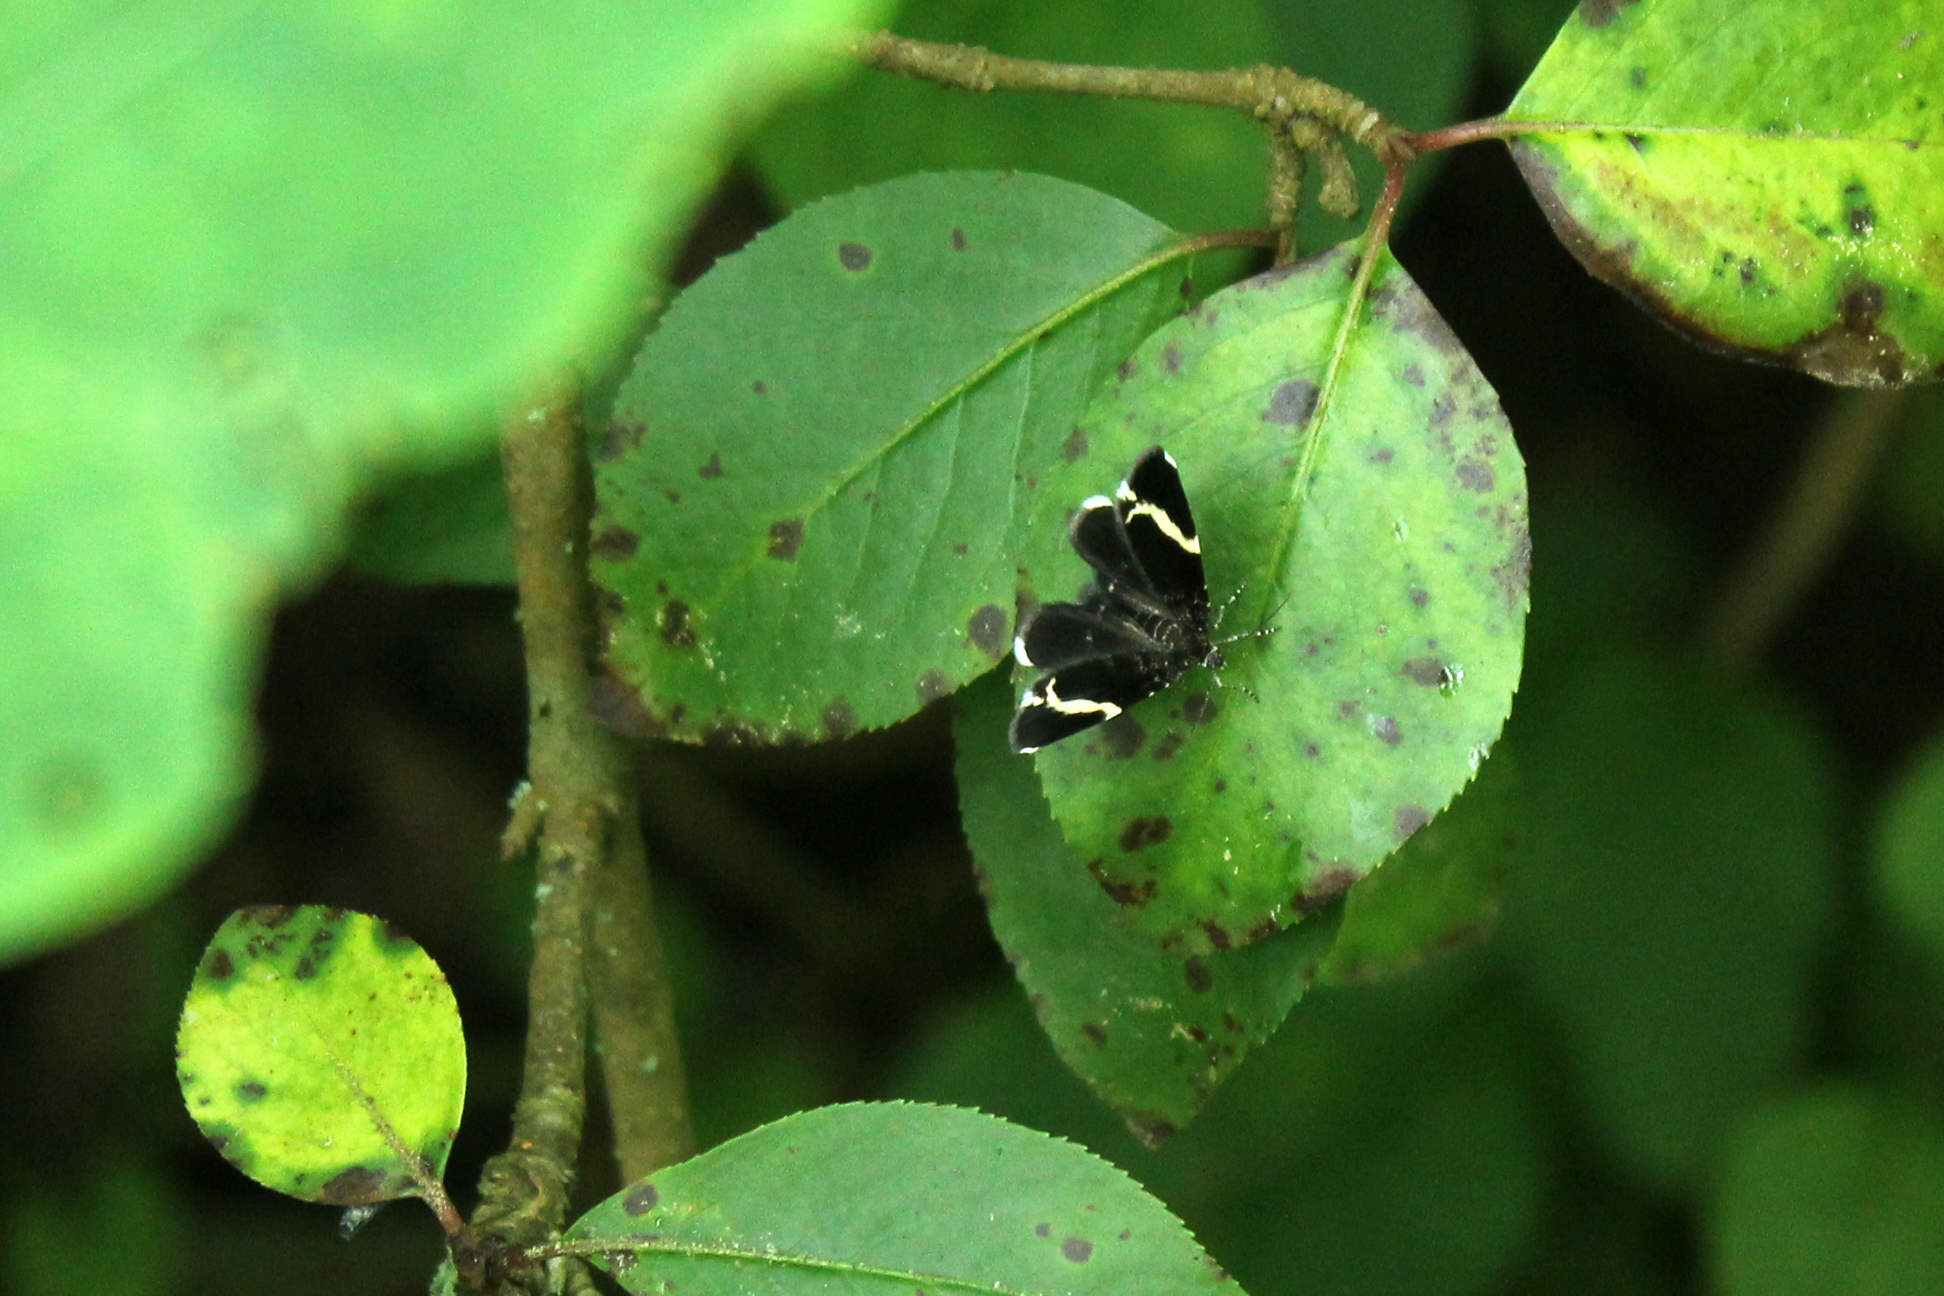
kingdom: Animalia
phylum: Arthropoda
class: Insecta
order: Lepidoptera
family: Geometridae
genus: Trichodezia
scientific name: Trichodezia albovittata
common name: White striped black
